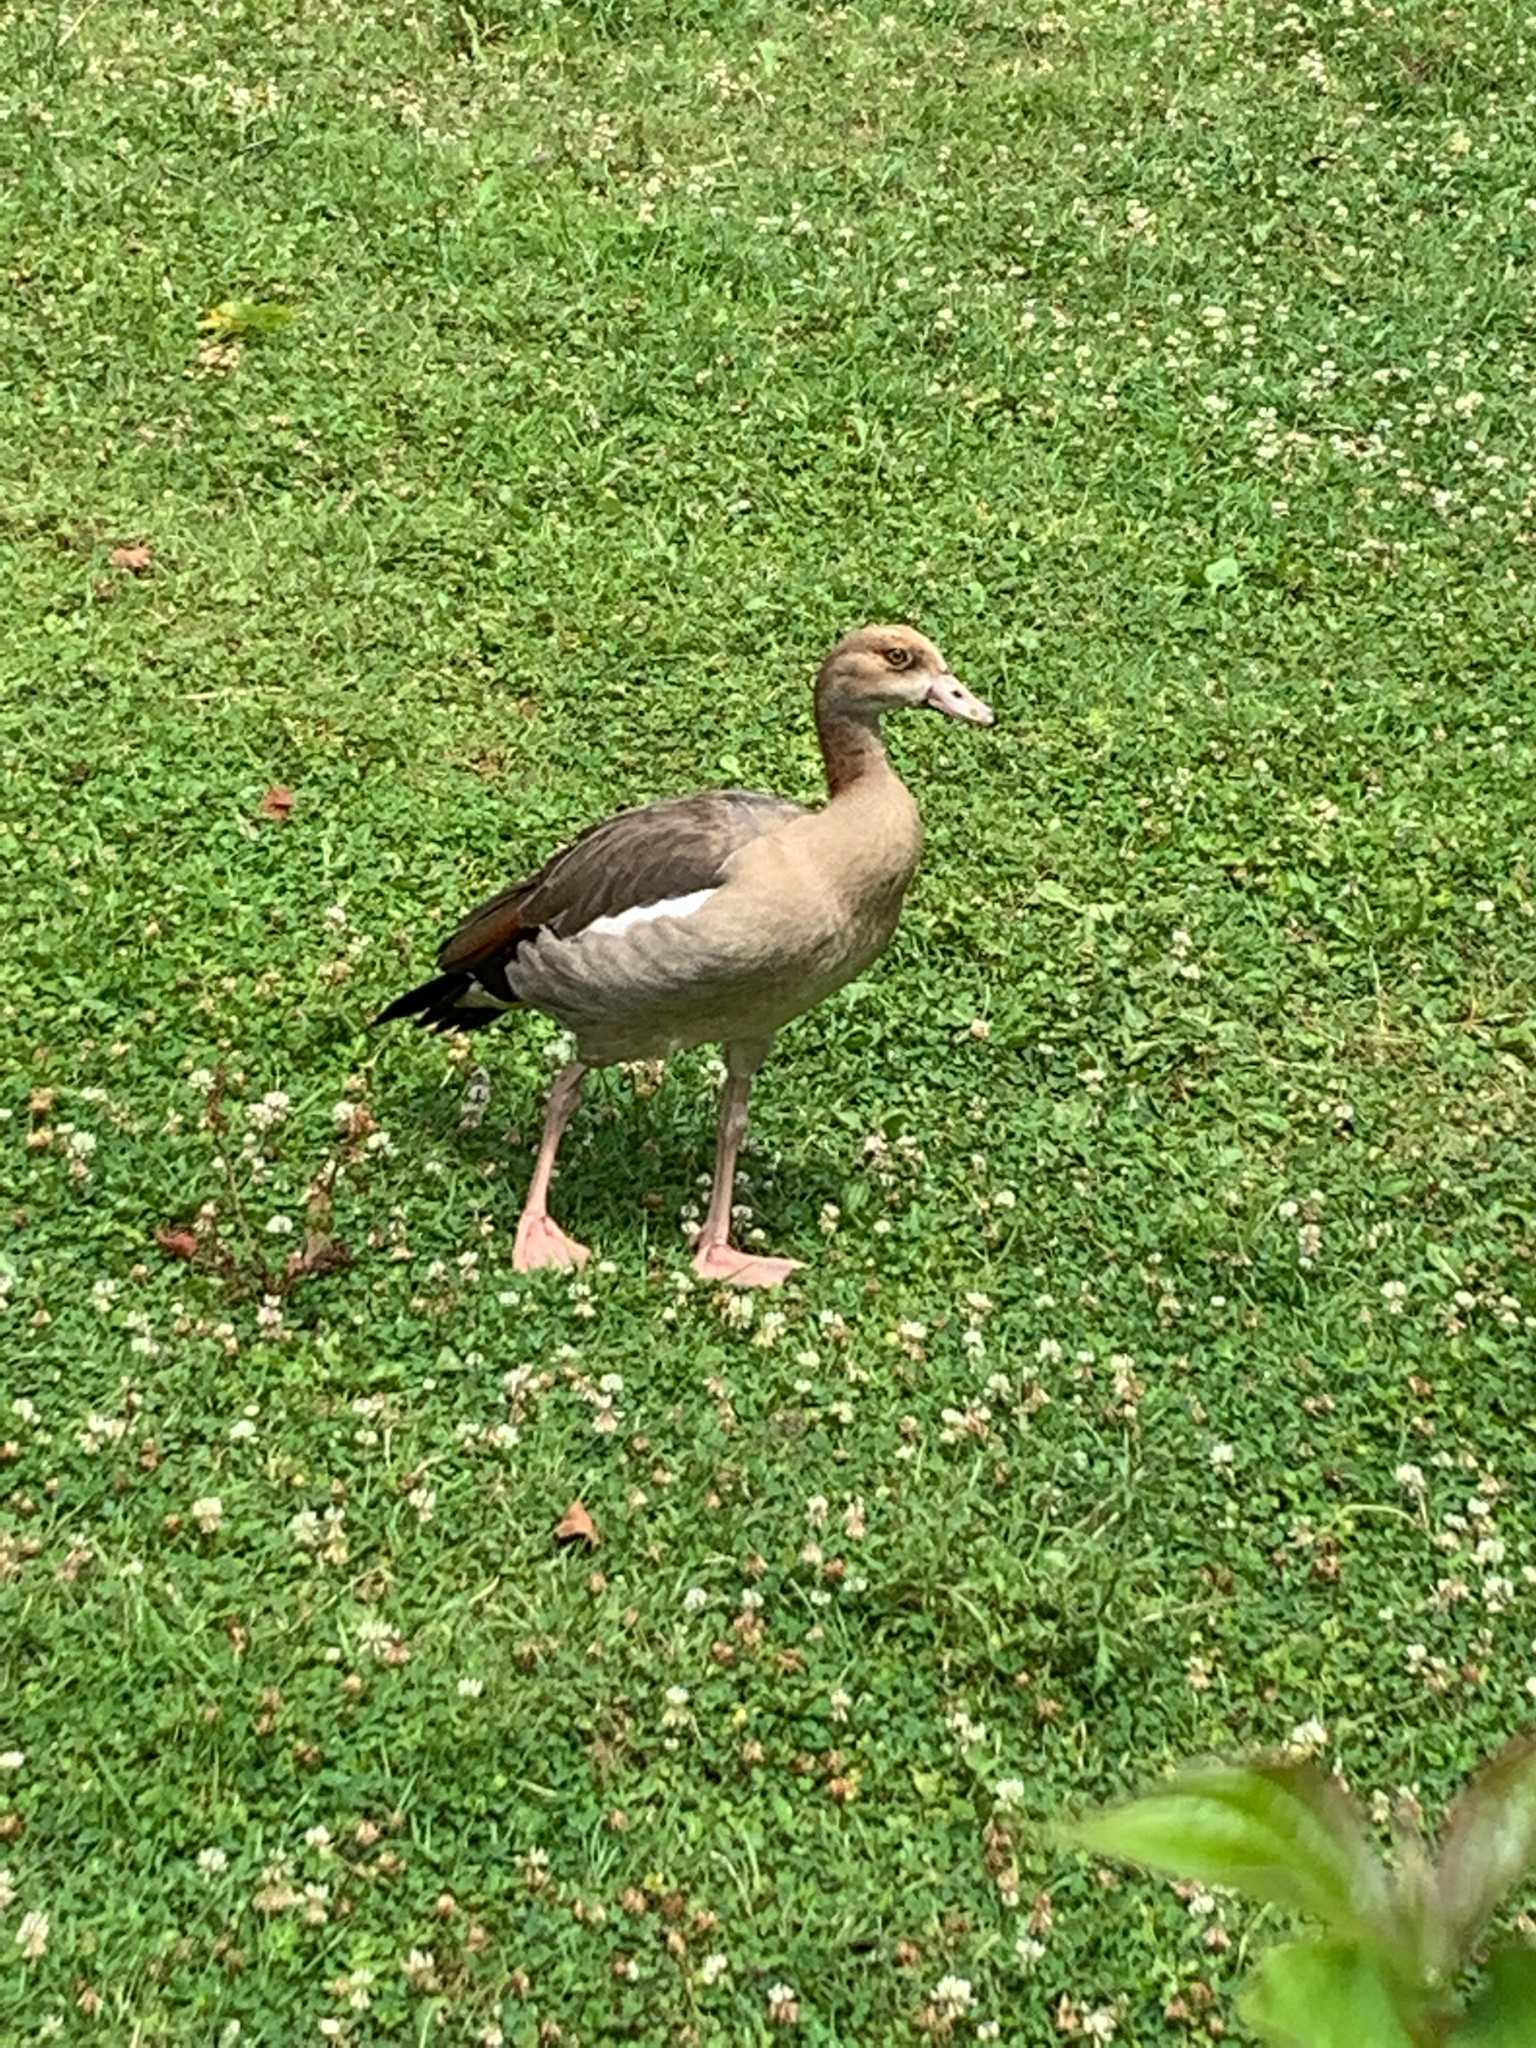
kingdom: Animalia
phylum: Chordata
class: Aves
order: Anseriformes
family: Anatidae
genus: Alopochen
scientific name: Alopochen aegyptiaca
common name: Egyptian goose
